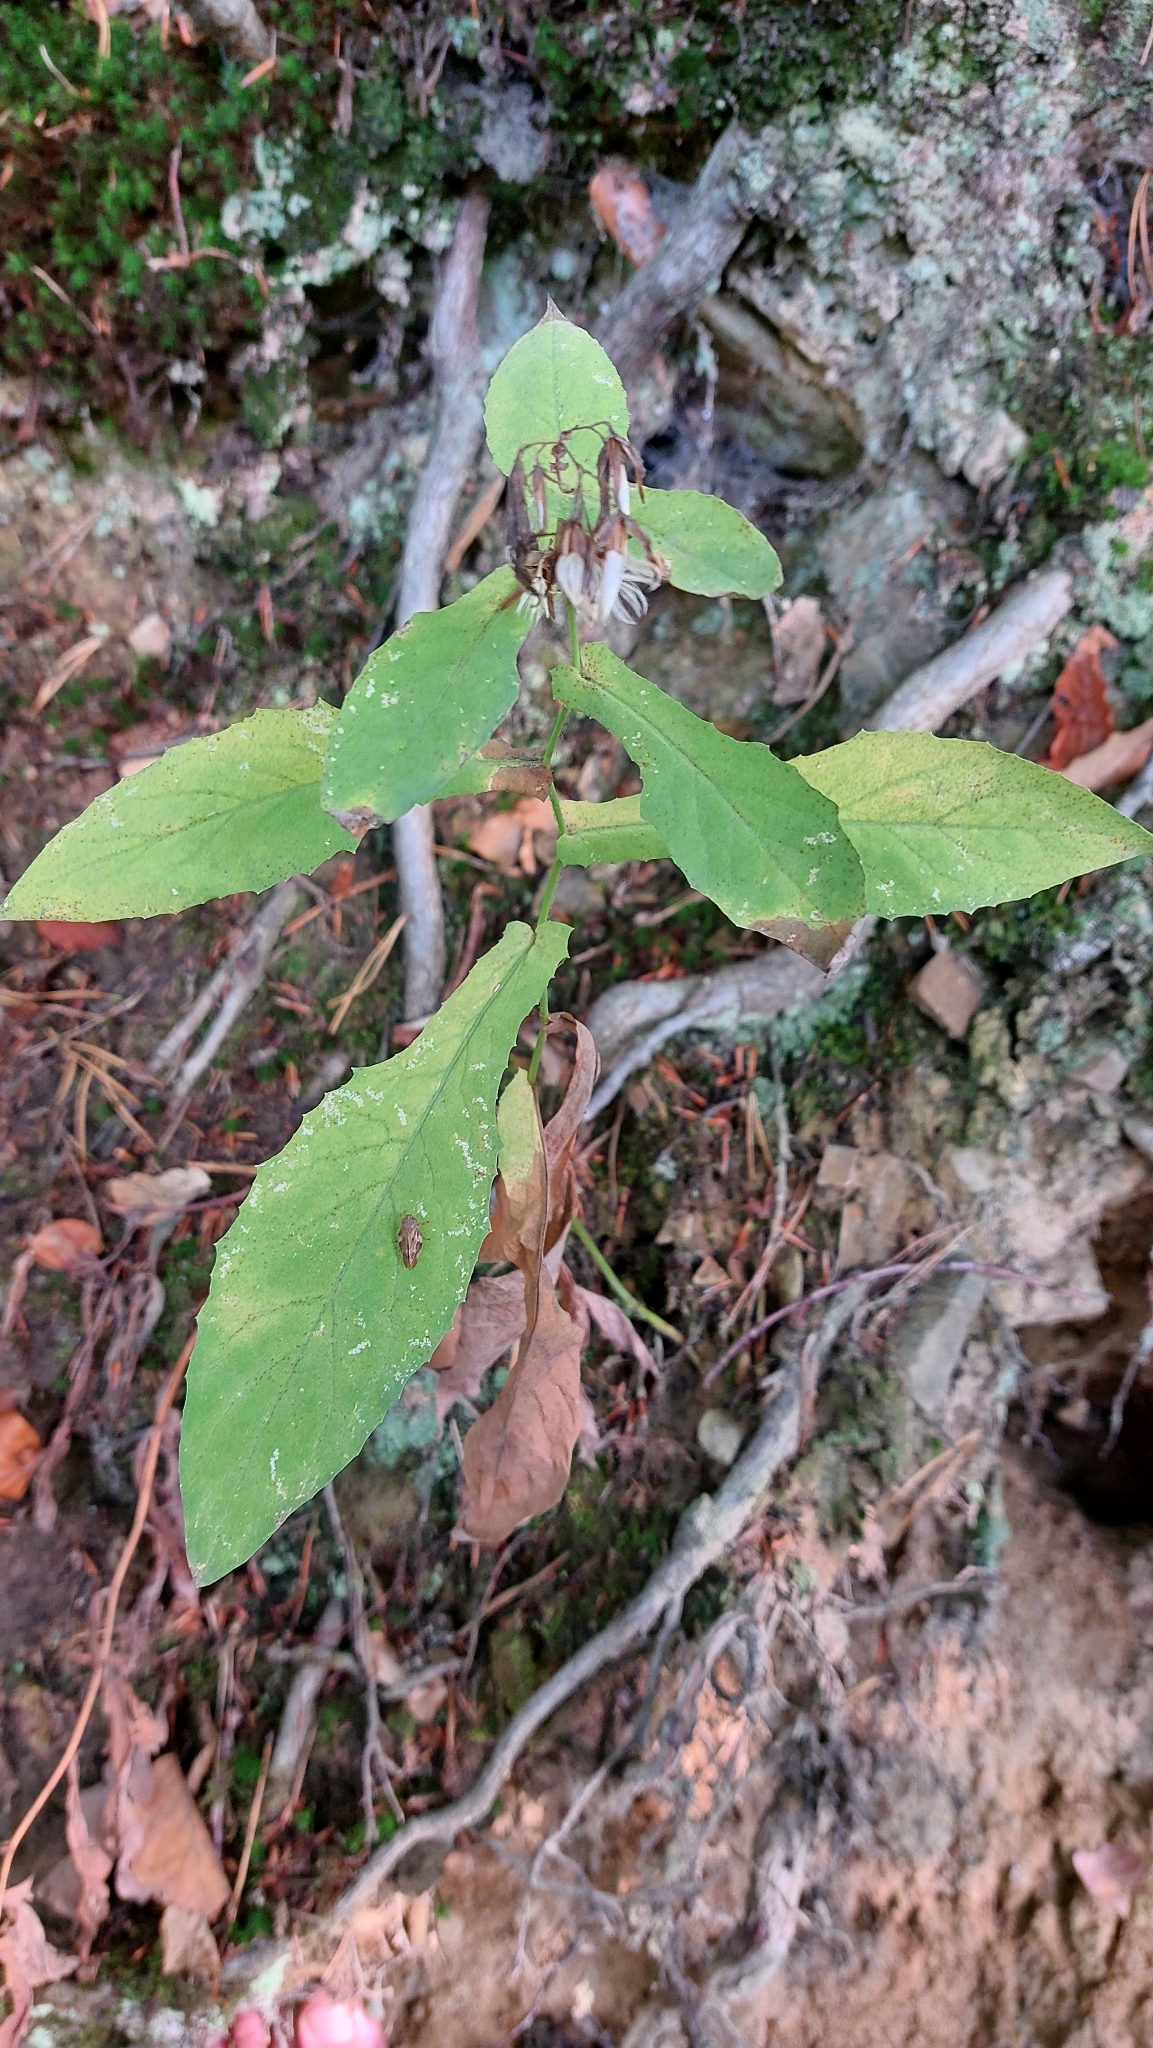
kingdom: Plantae
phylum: Tracheophyta
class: Magnoliopsida
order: Asterales
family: Asteraceae
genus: Prenanthes
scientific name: Prenanthes purpurea
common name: Purple lettuce
